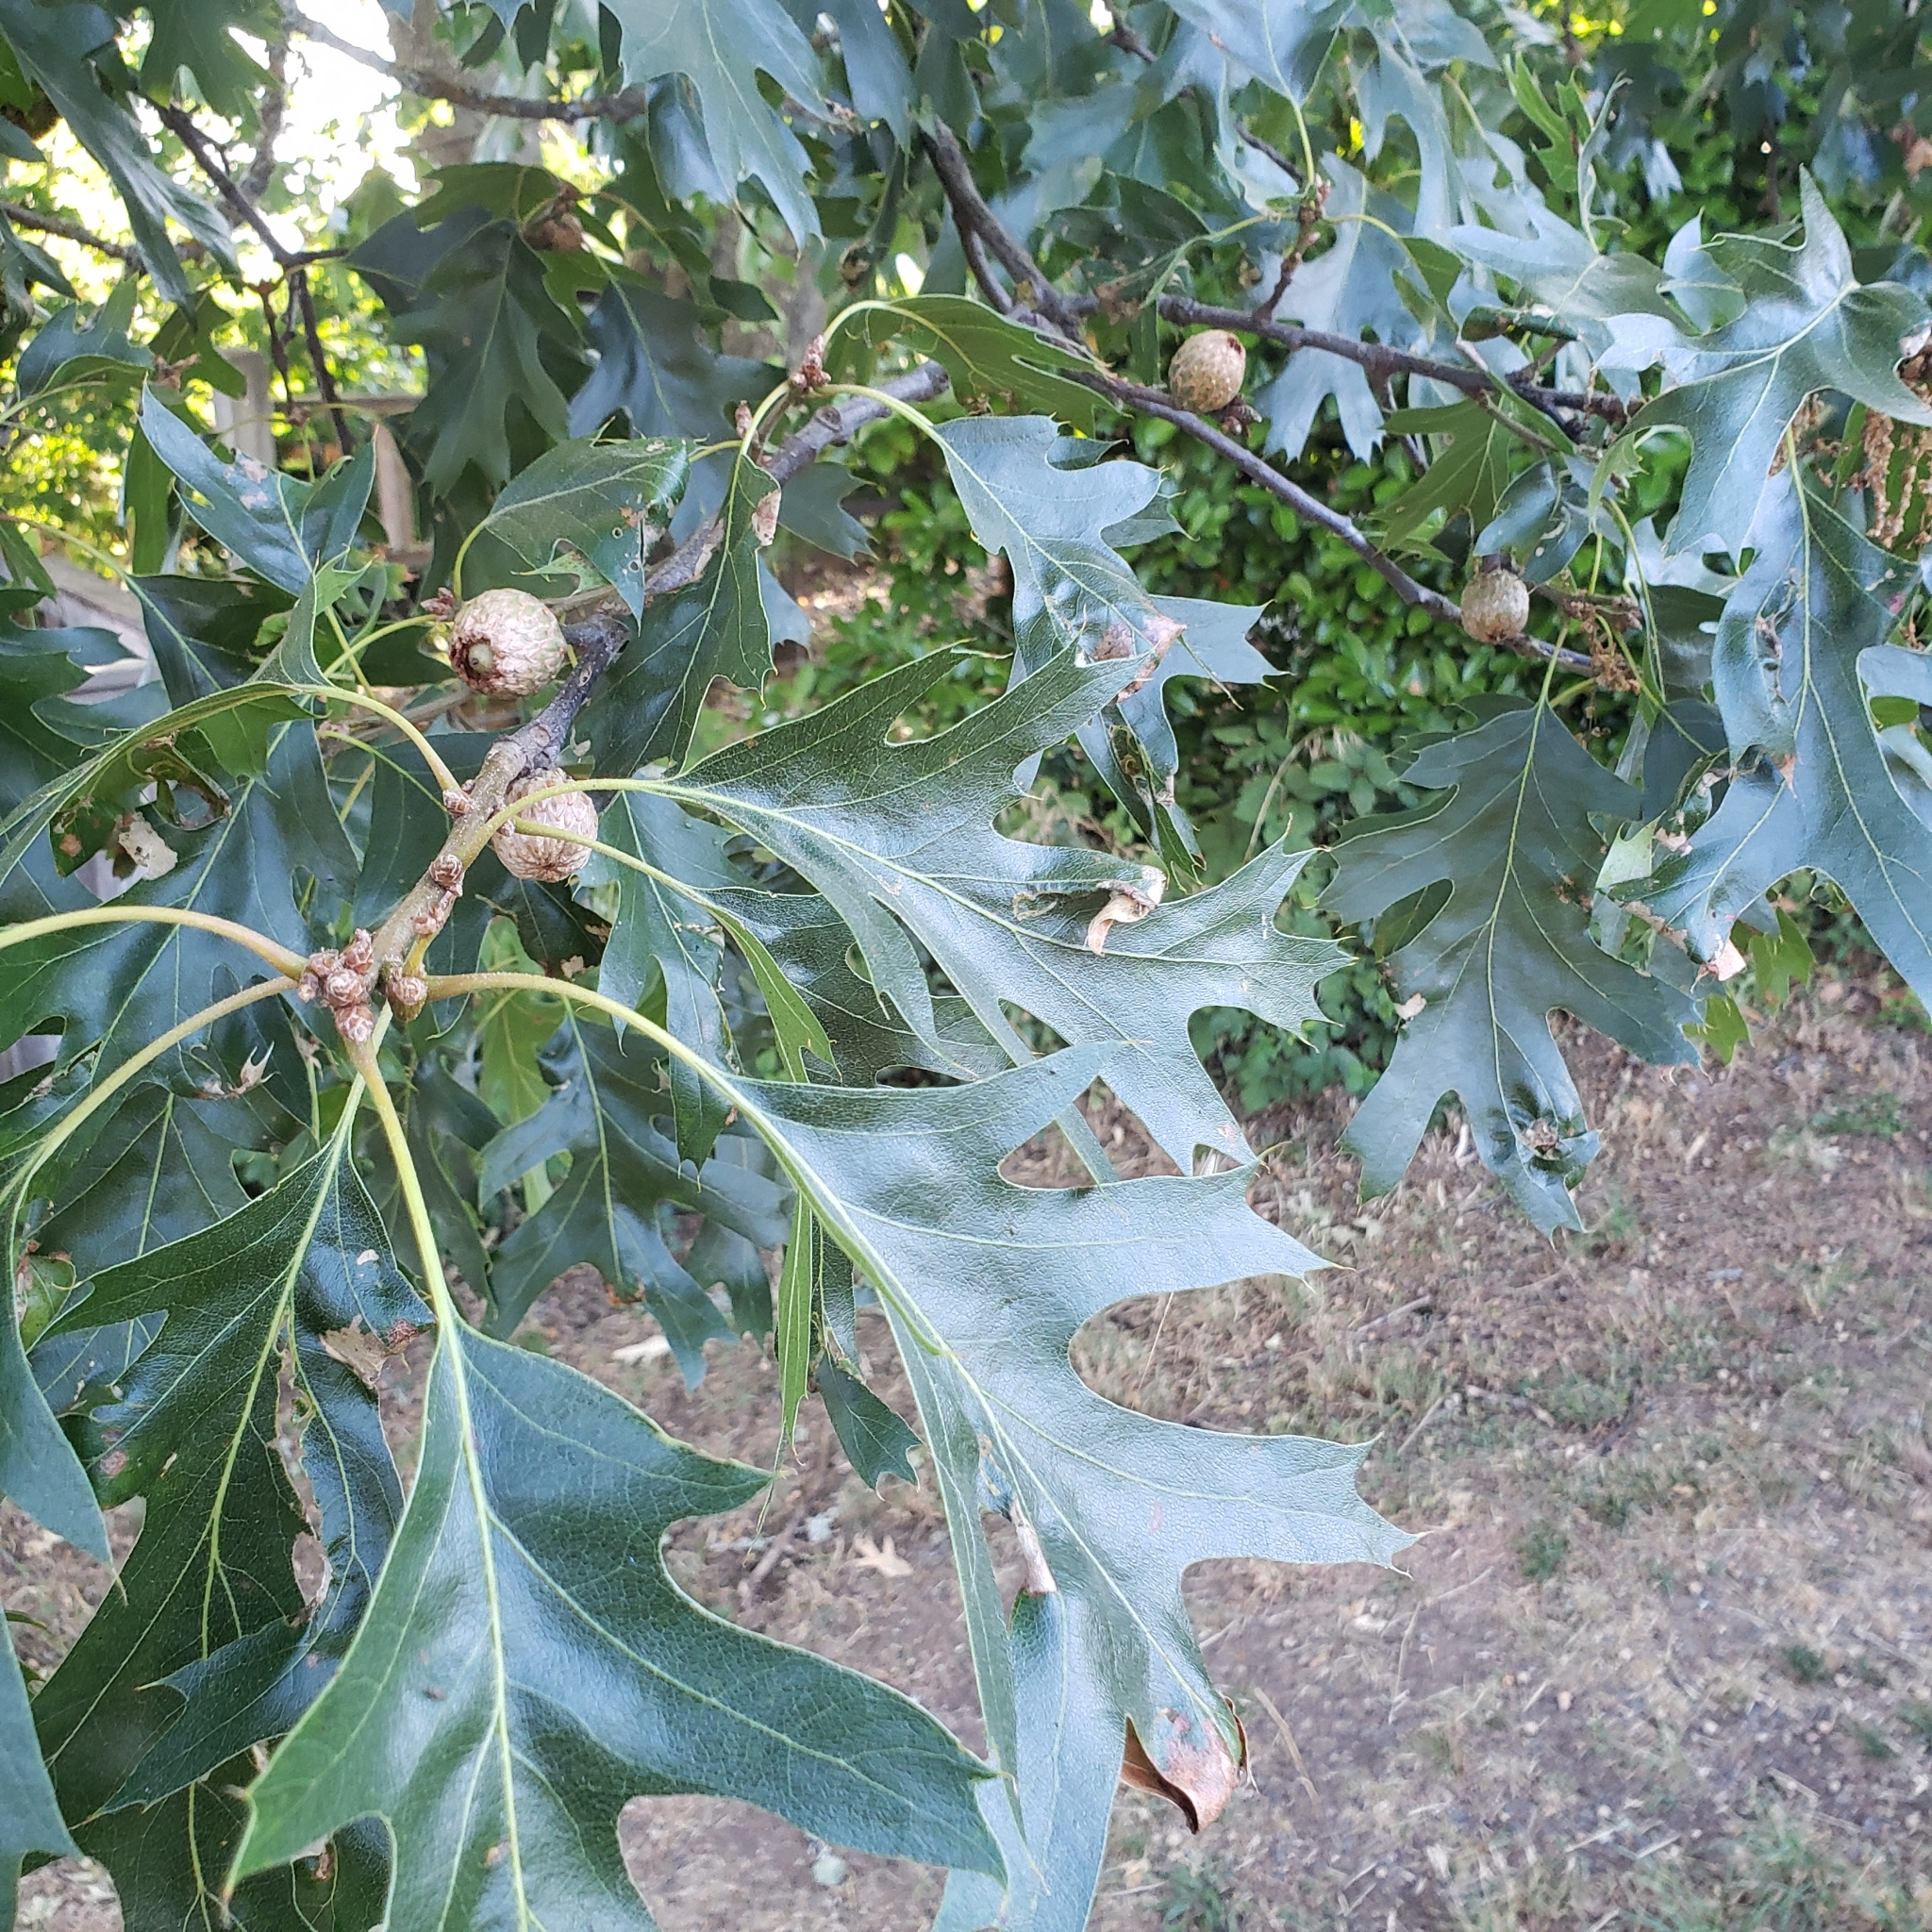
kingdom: Plantae
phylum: Tracheophyta
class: Magnoliopsida
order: Fagales
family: Fagaceae
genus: Quercus
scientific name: Quercus kelloggii
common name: California black oak
